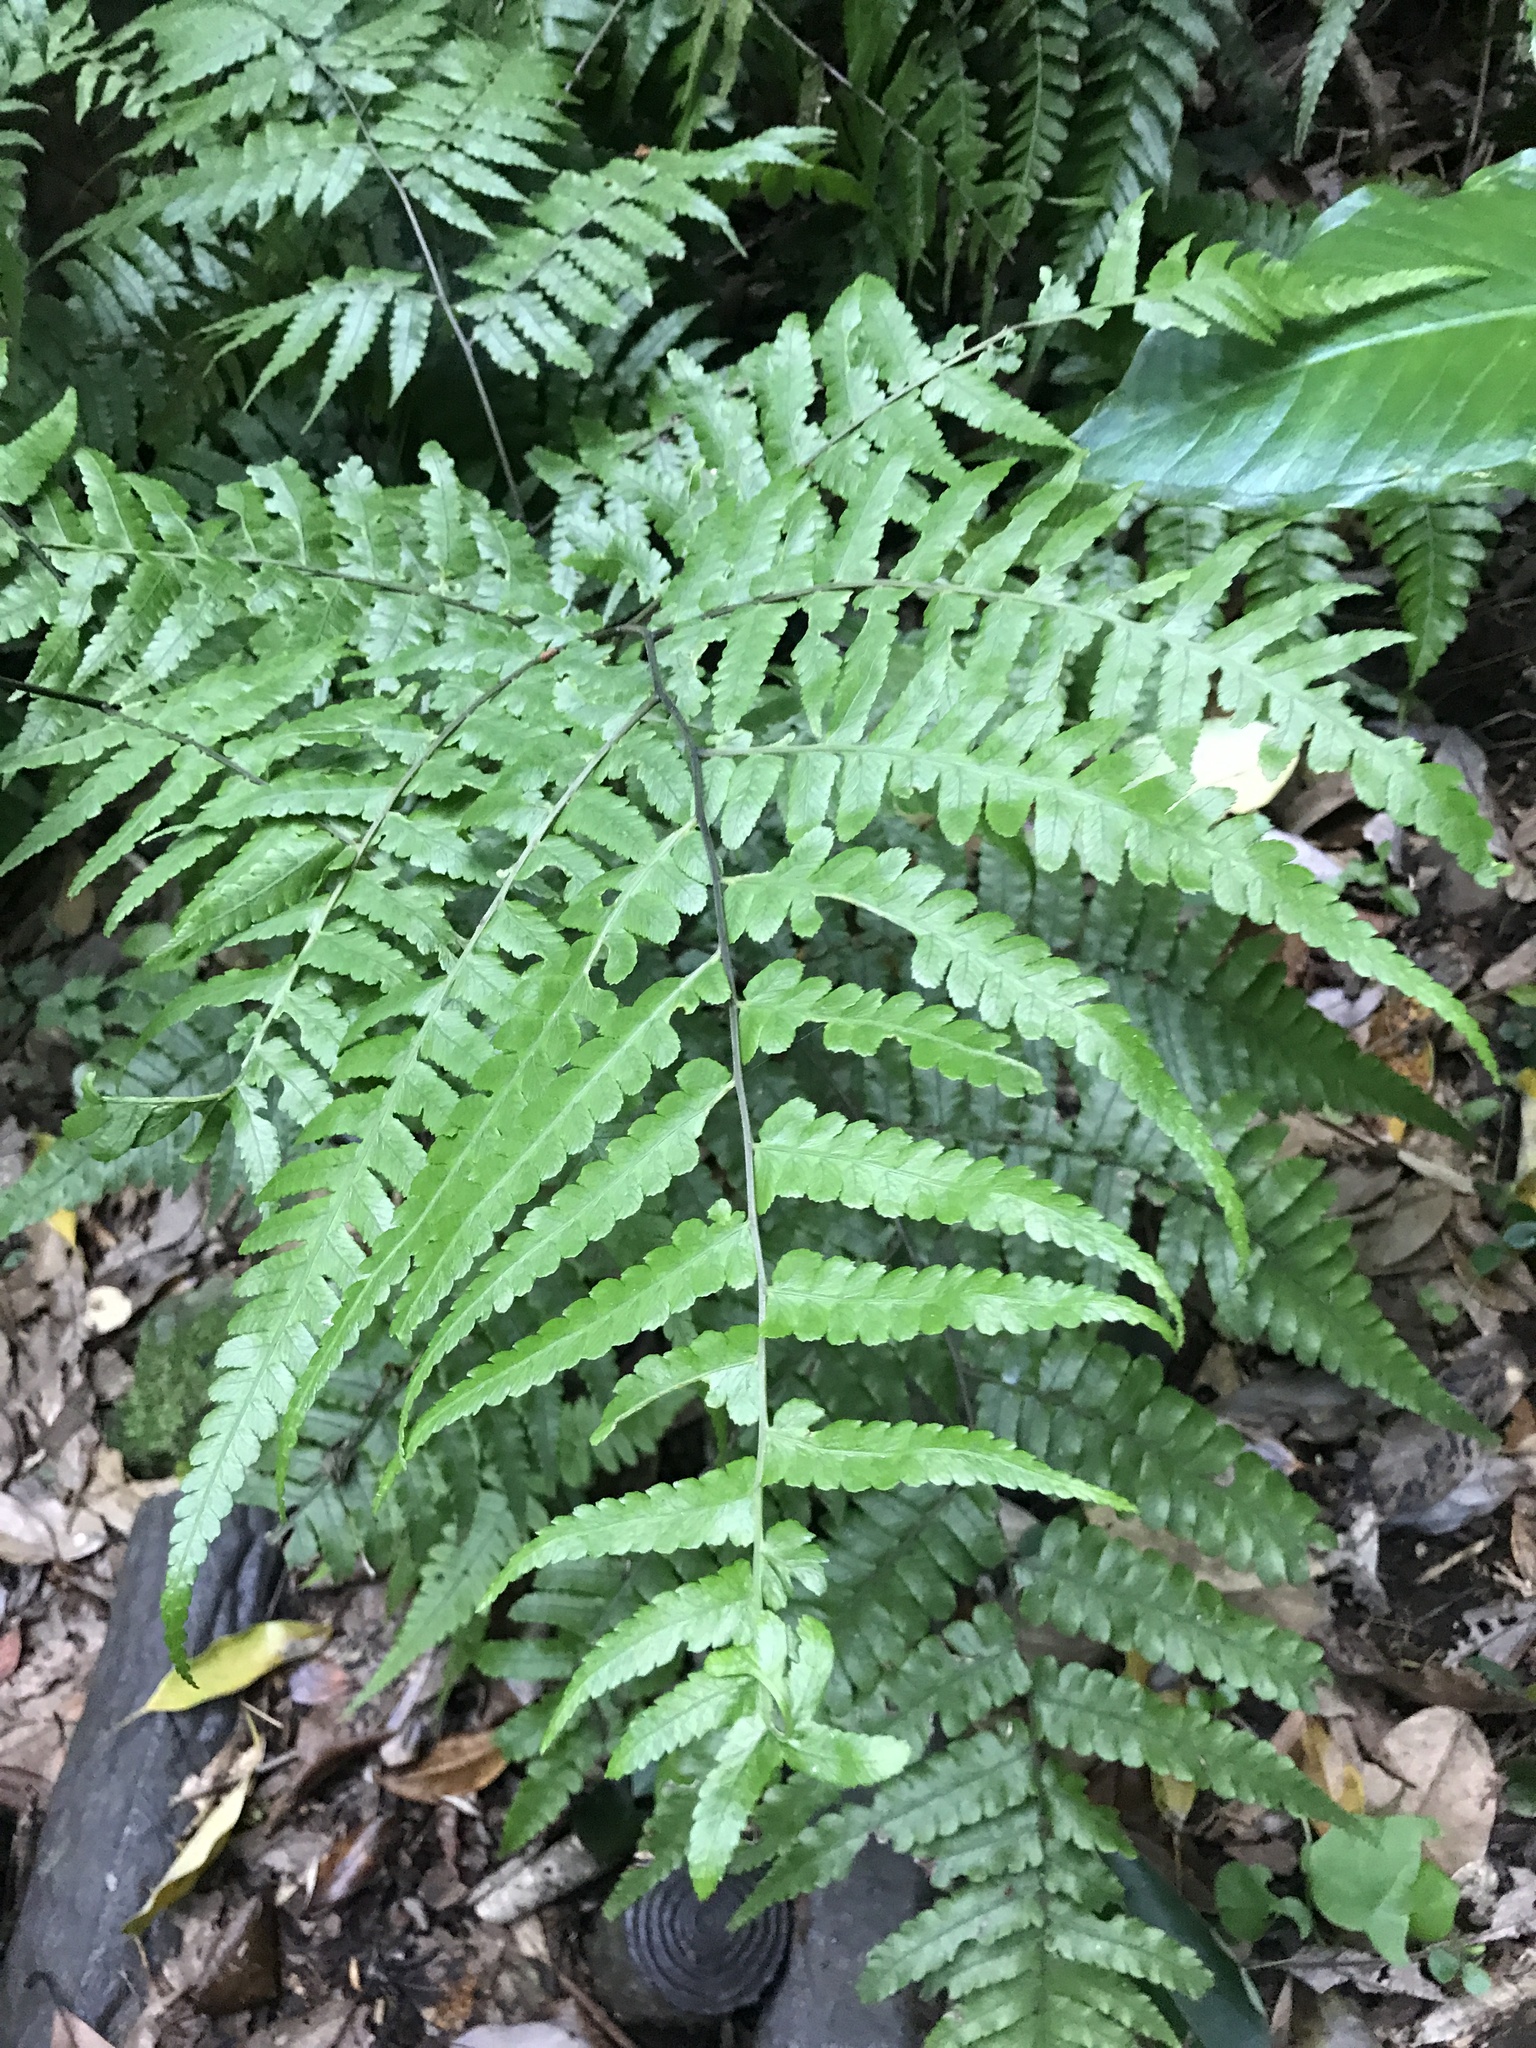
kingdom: Plantae
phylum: Tracheophyta
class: Polypodiopsida
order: Polypodiales
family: Athyriaceae
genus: Diplazium
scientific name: Diplazium virescens
